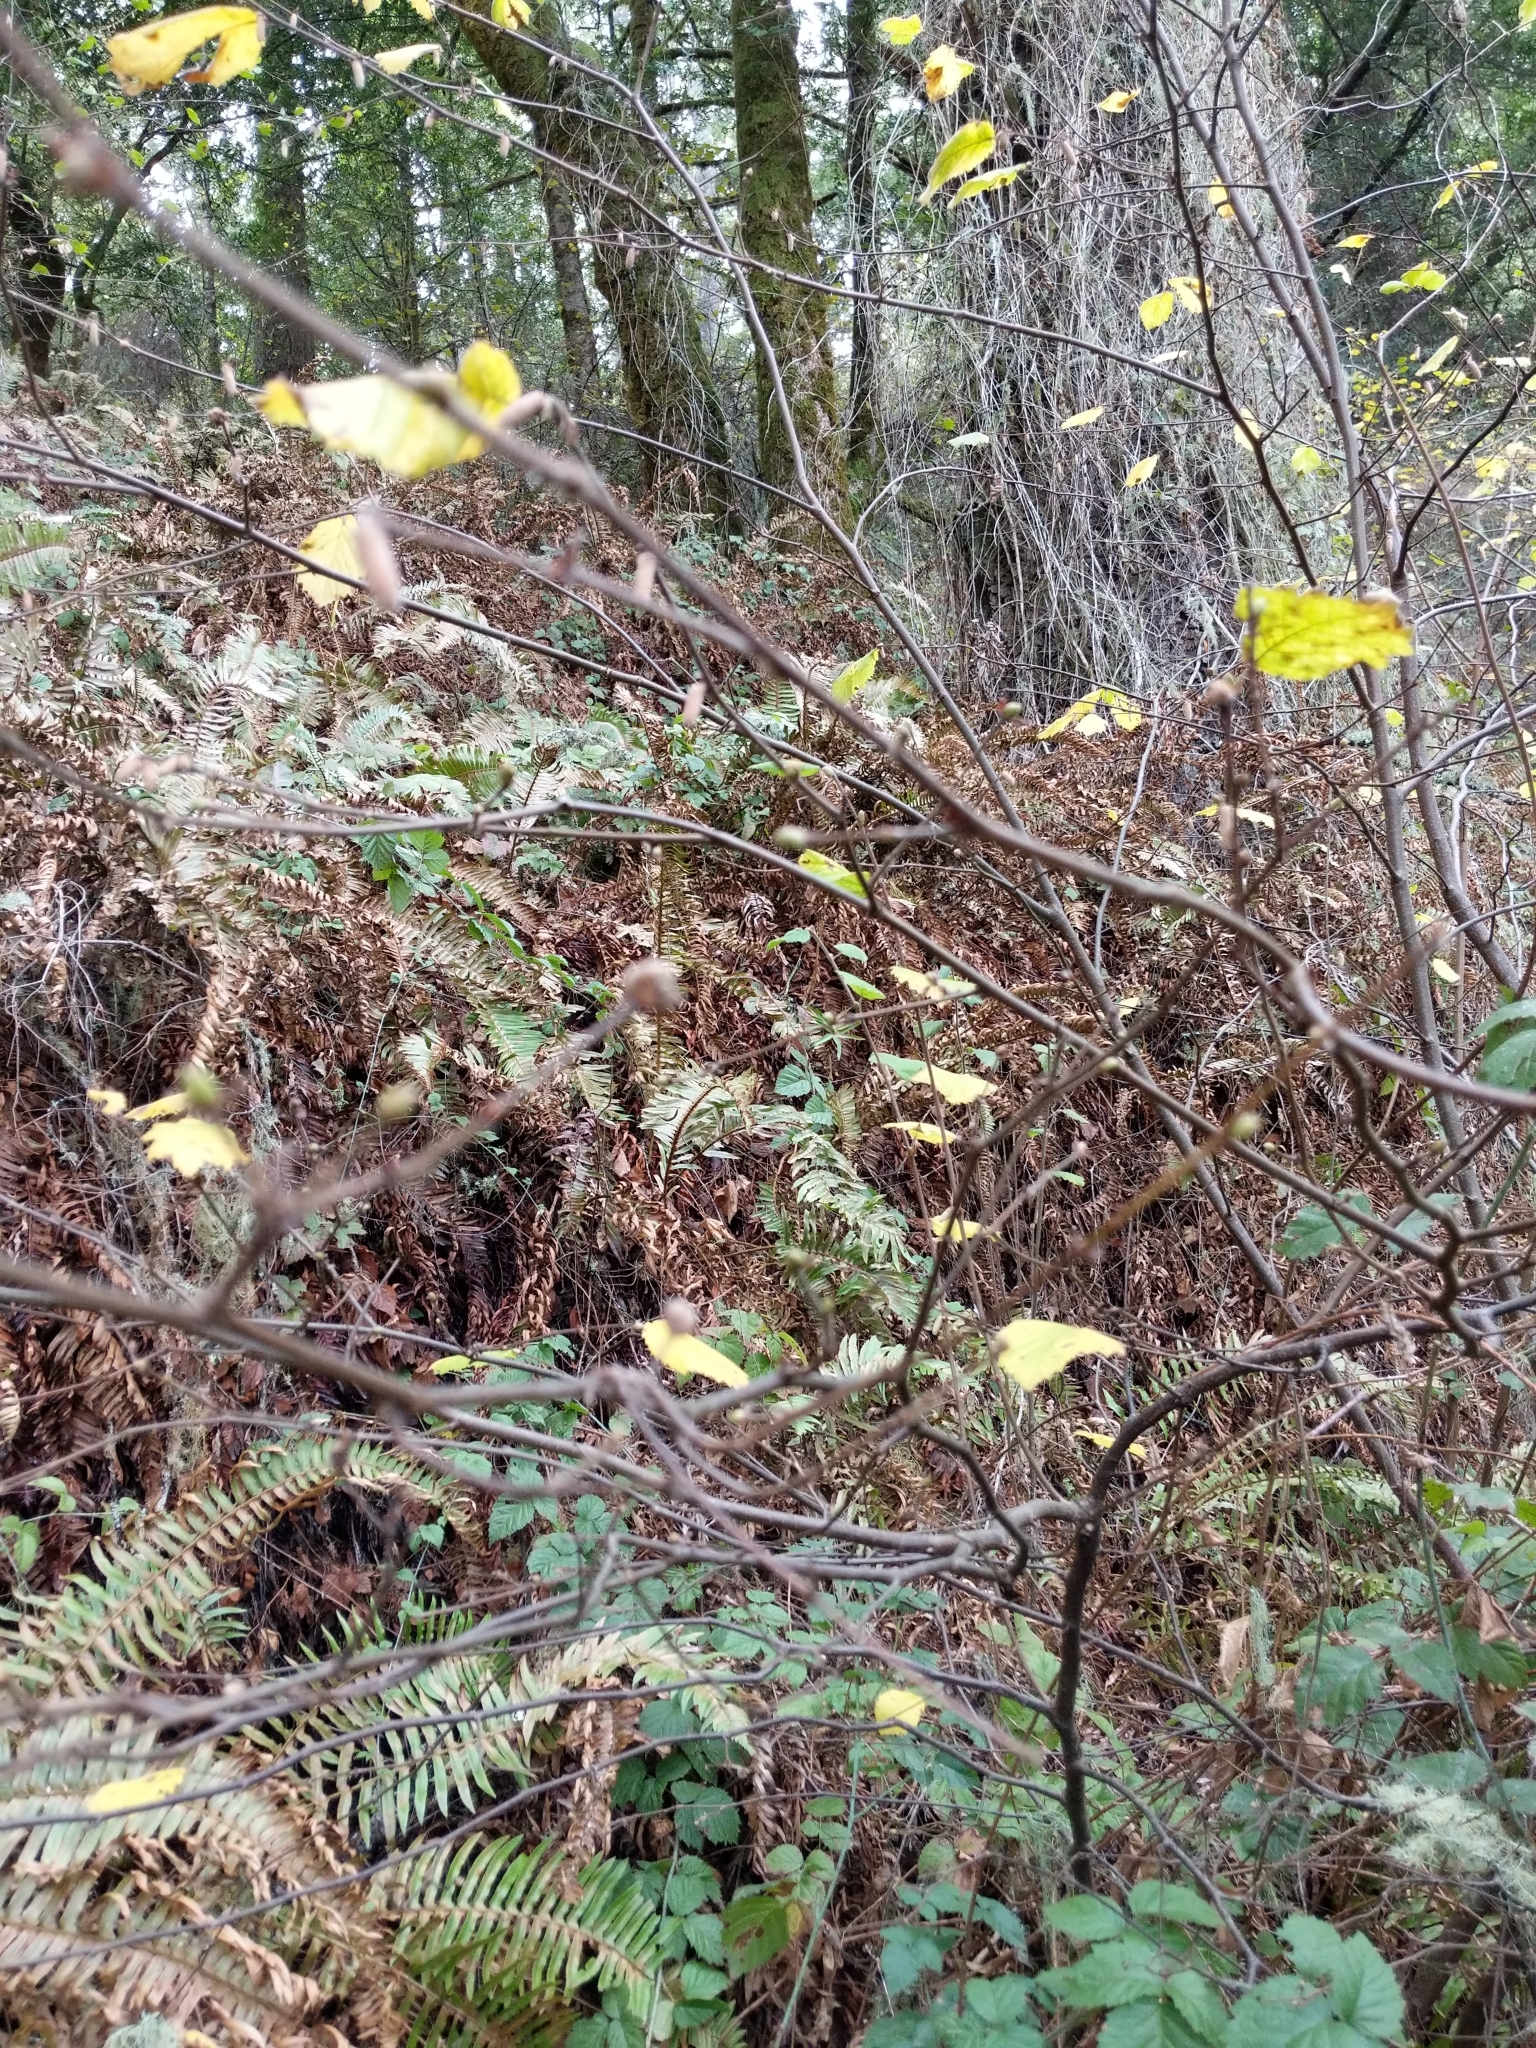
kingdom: Plantae
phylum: Tracheophyta
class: Magnoliopsida
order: Fagales
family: Betulaceae
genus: Corylus
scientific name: Corylus cornuta
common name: Beaked hazel
